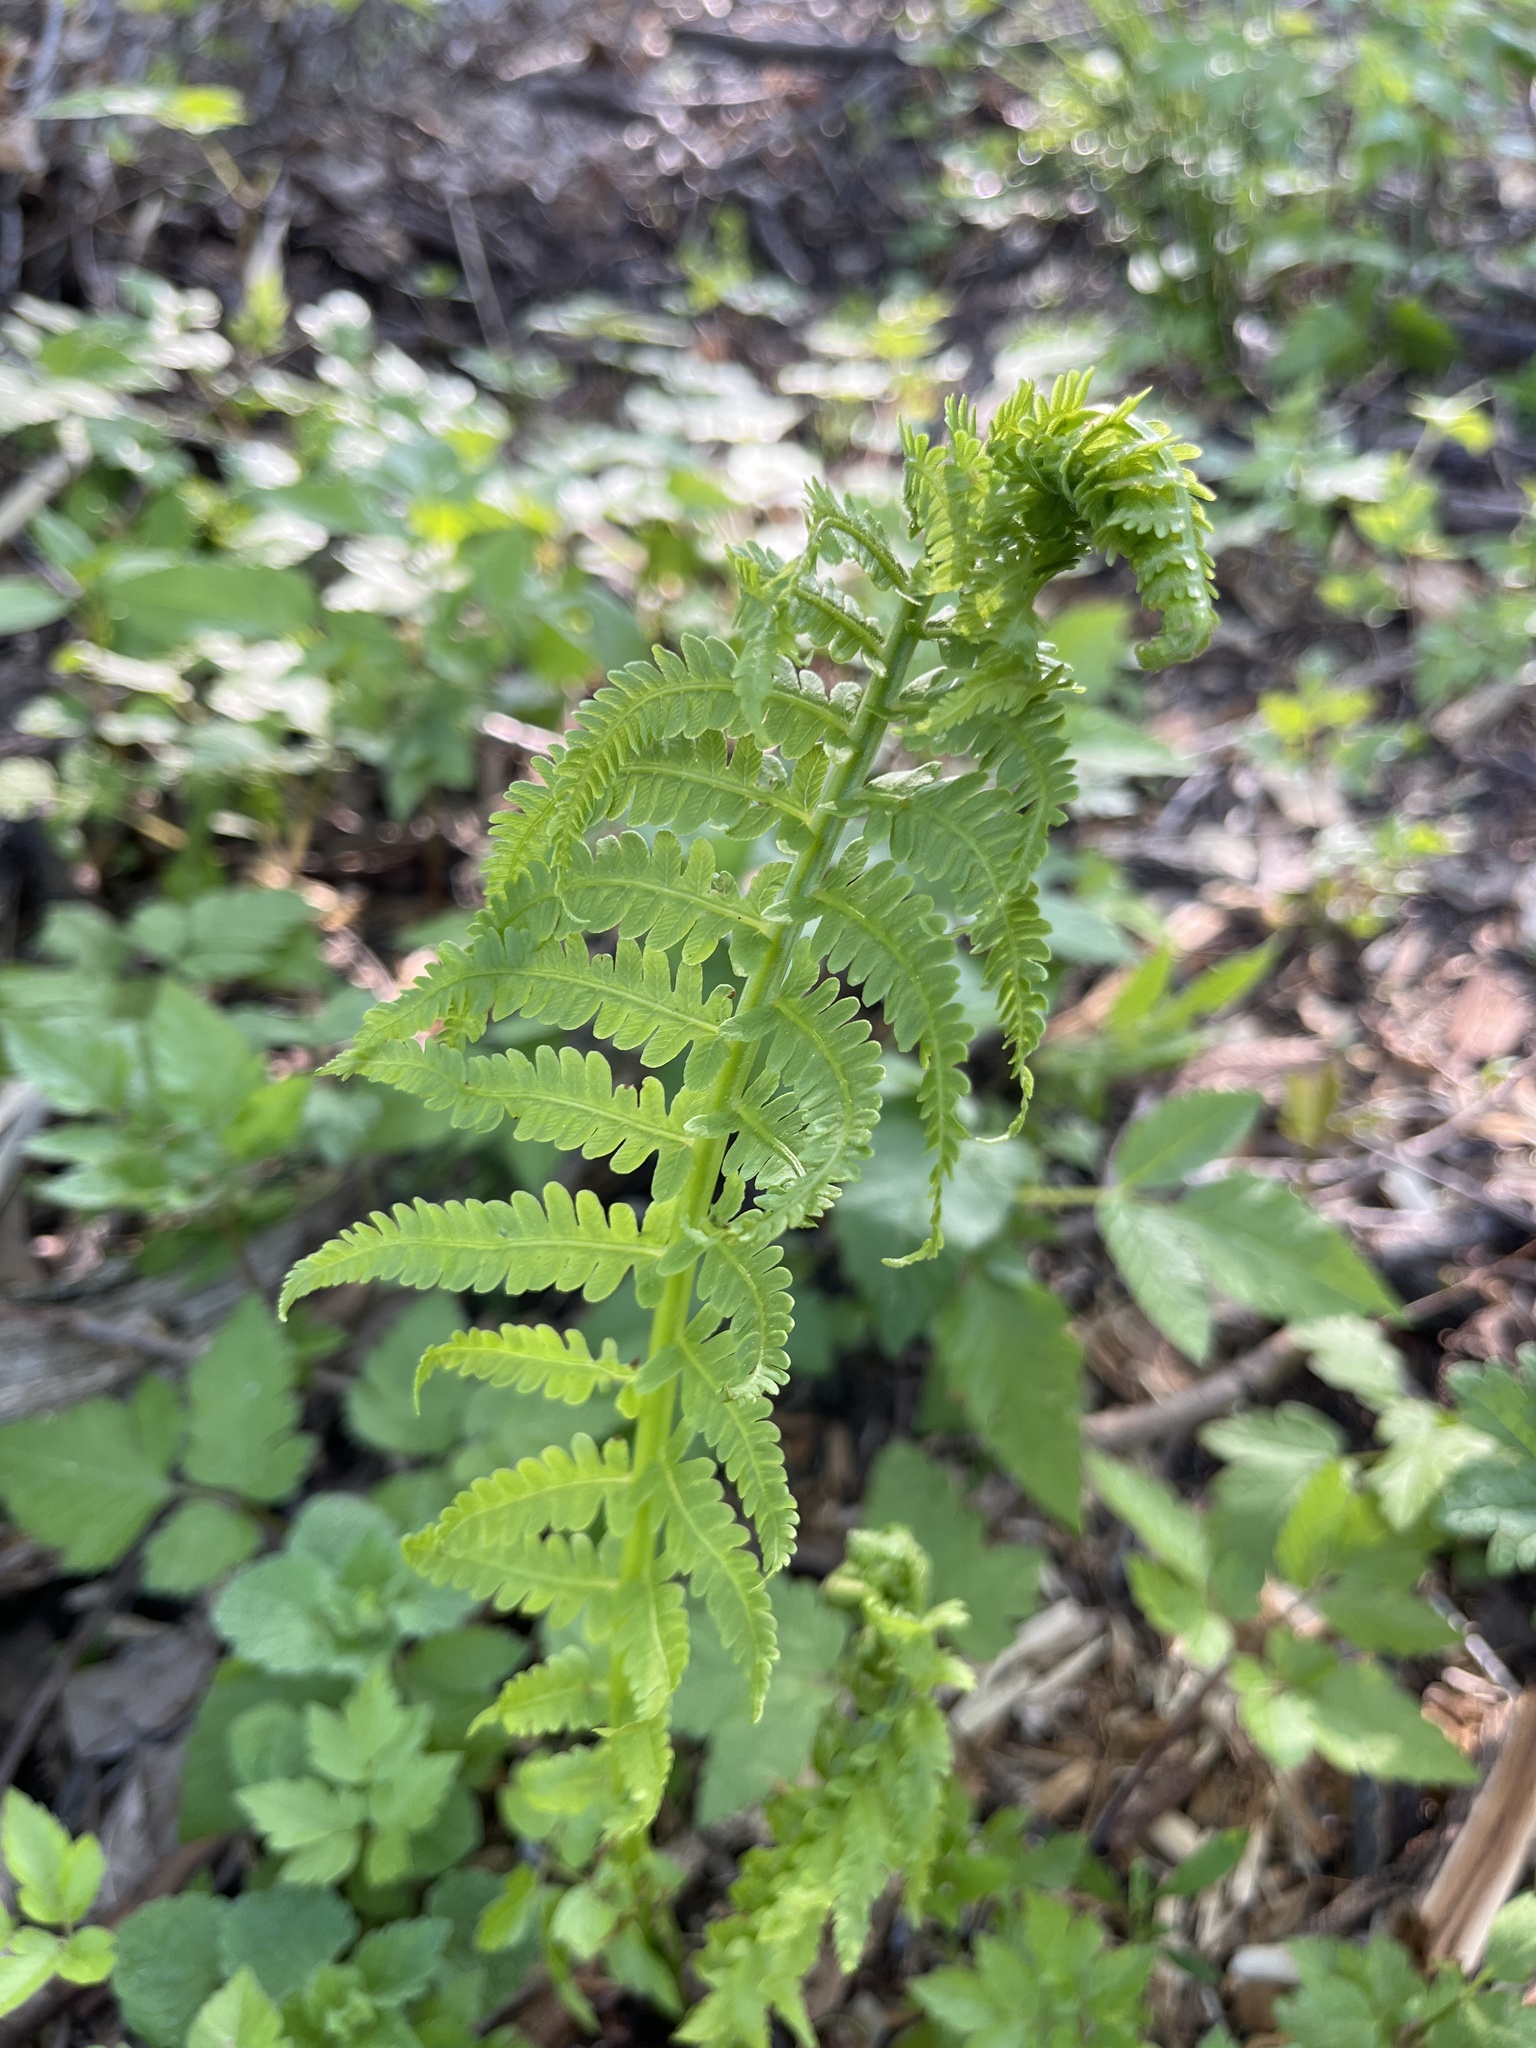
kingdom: Plantae
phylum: Tracheophyta
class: Polypodiopsida
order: Polypodiales
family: Onocleaceae
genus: Matteuccia
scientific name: Matteuccia struthiopteris
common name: Ostrich fern
